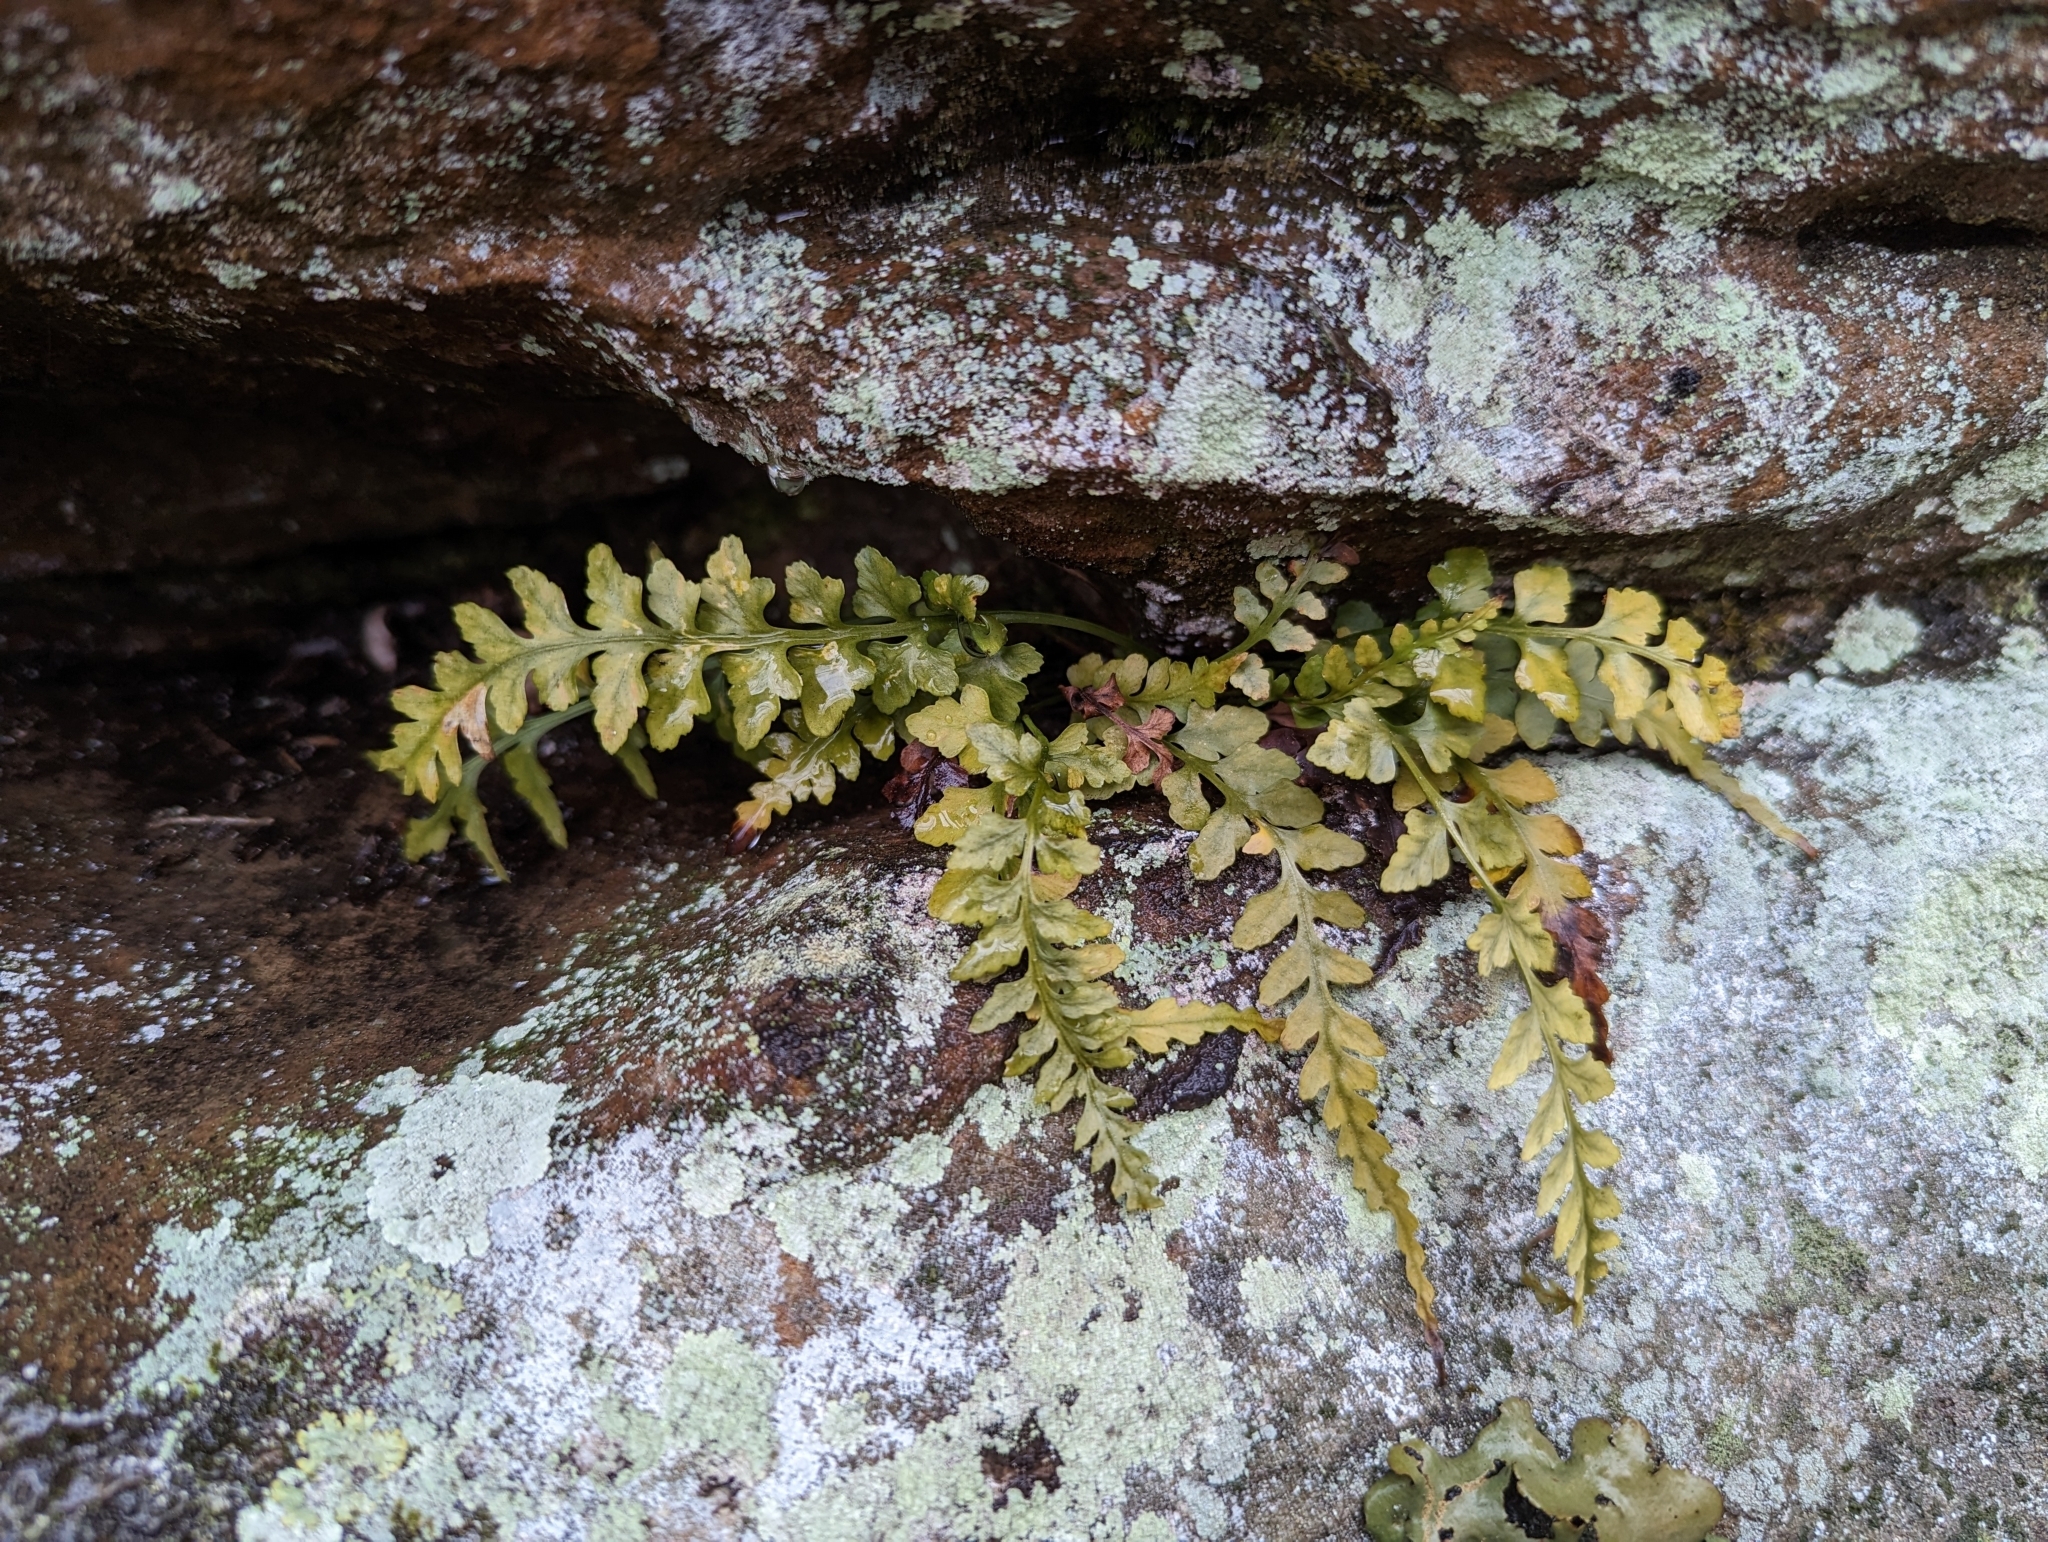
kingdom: Plantae
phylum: Tracheophyta
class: Polypodiopsida
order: Polypodiales
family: Aspleniaceae
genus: Asplenium
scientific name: Asplenium trudellii
